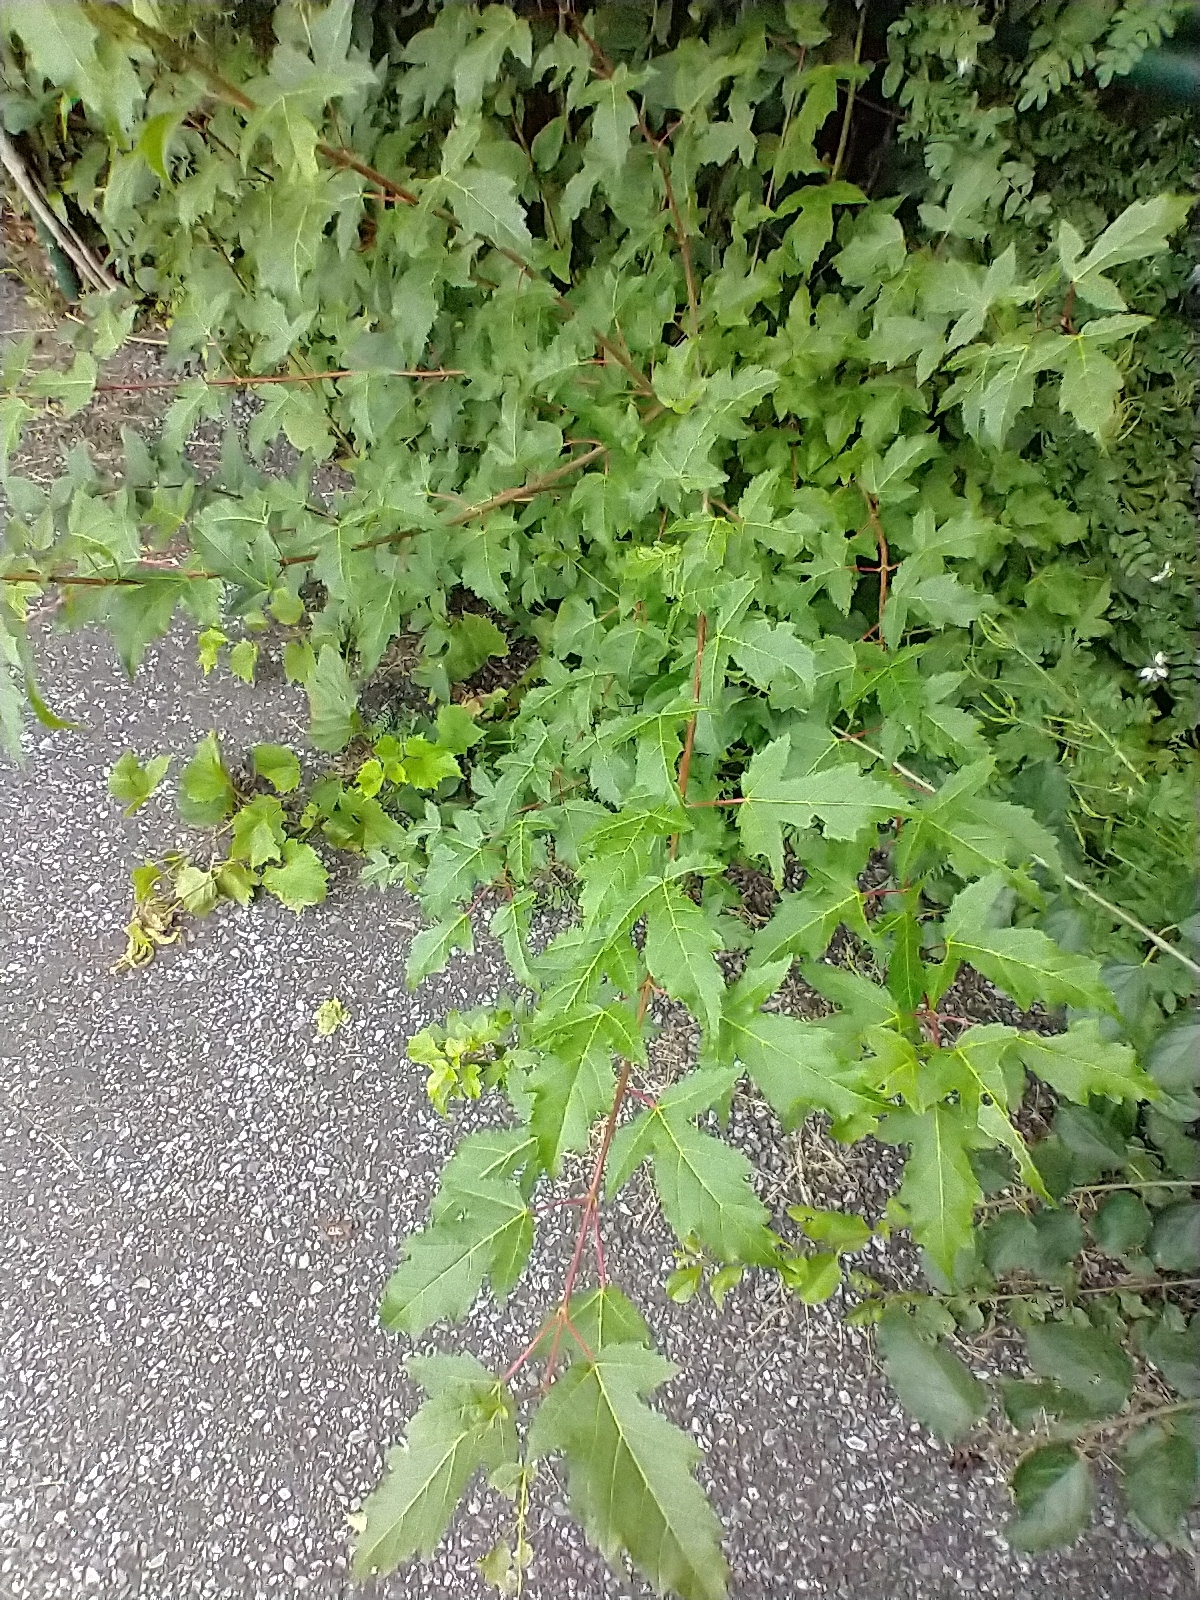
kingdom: Plantae
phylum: Tracheophyta
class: Magnoliopsida
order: Sapindales
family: Sapindaceae
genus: Acer
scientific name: Acer tataricum
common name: Tartar maple
